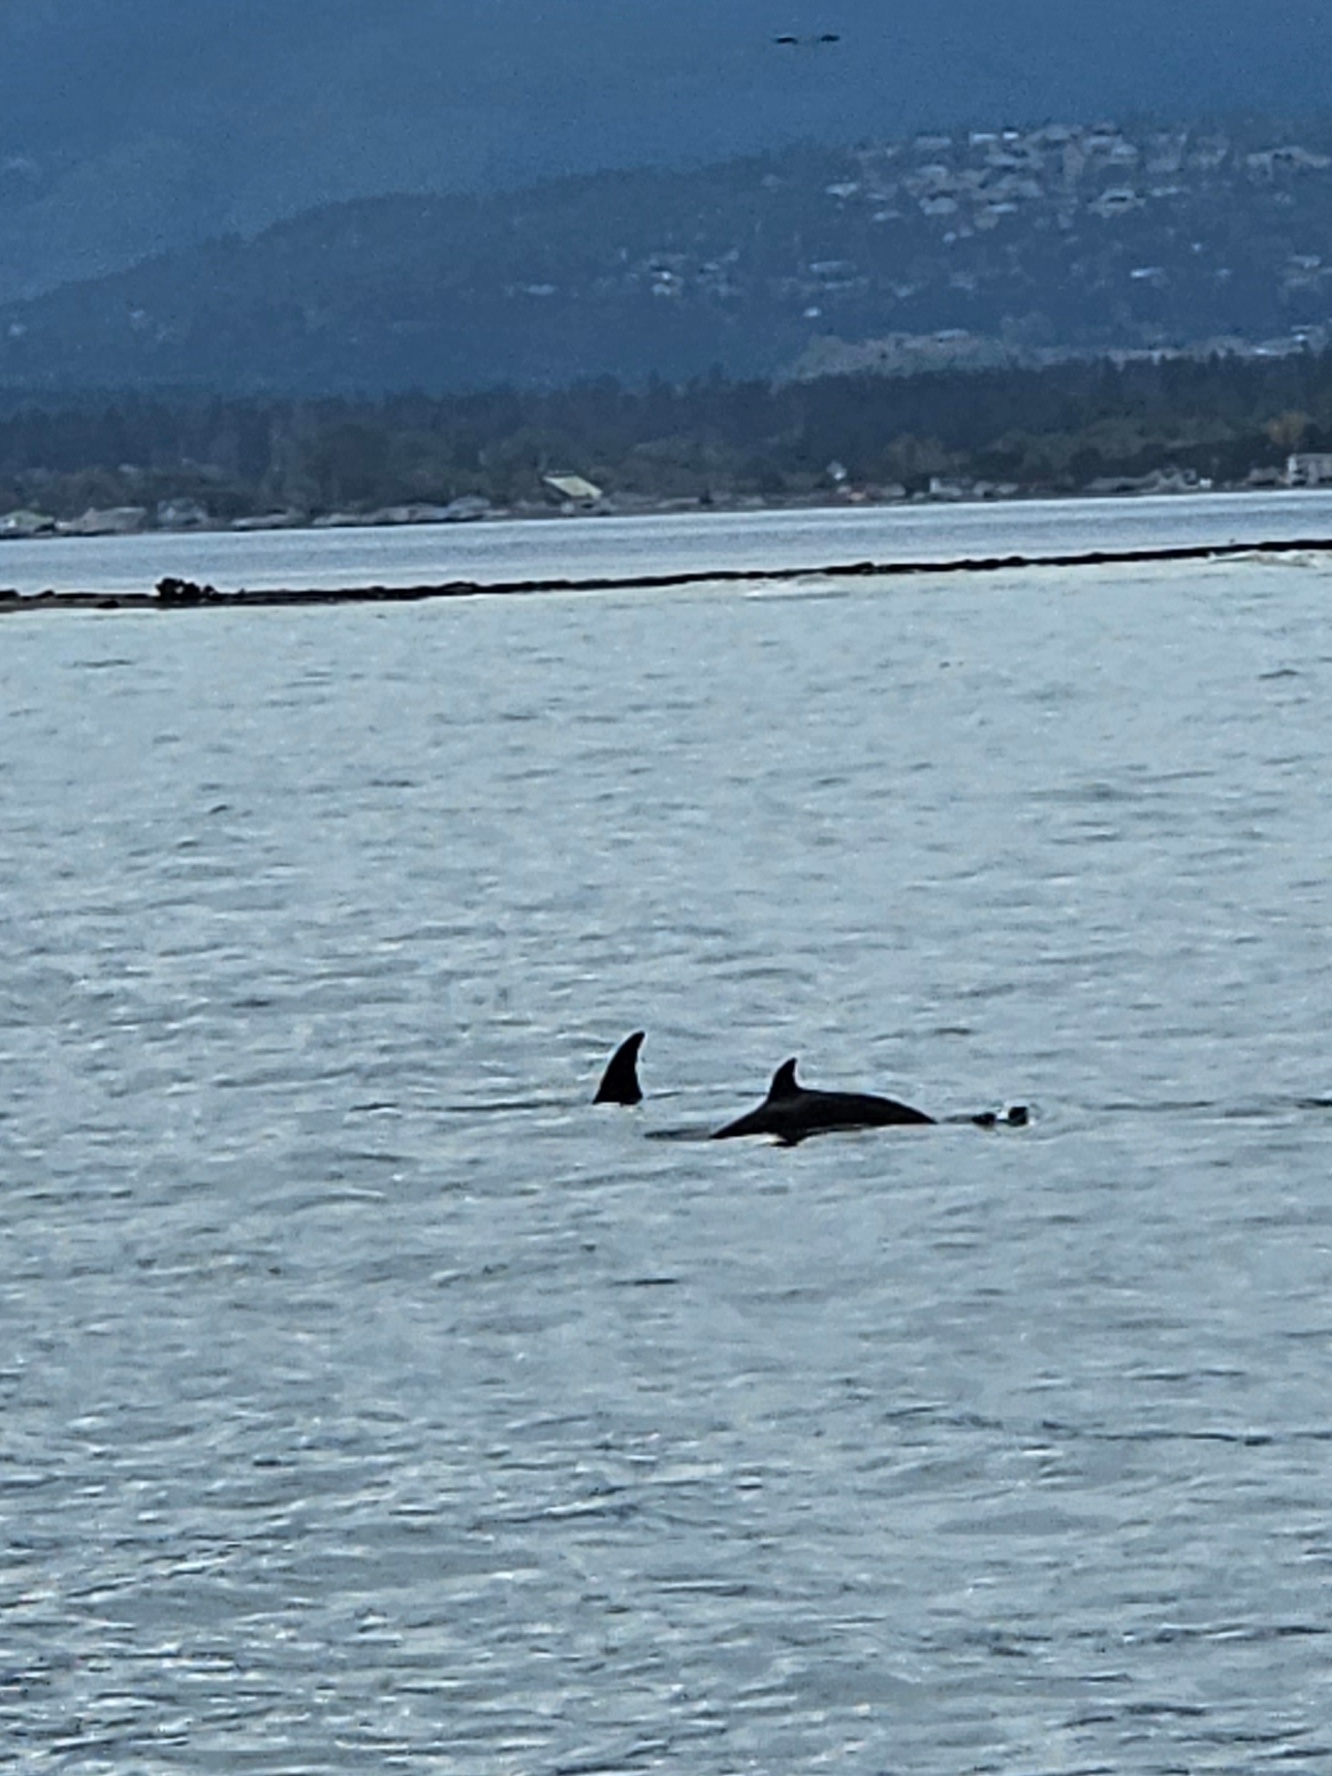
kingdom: Animalia
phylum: Chordata
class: Mammalia
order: Cetacea
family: Delphinidae
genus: Orcinus
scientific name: Orcinus orca
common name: Killer whale
